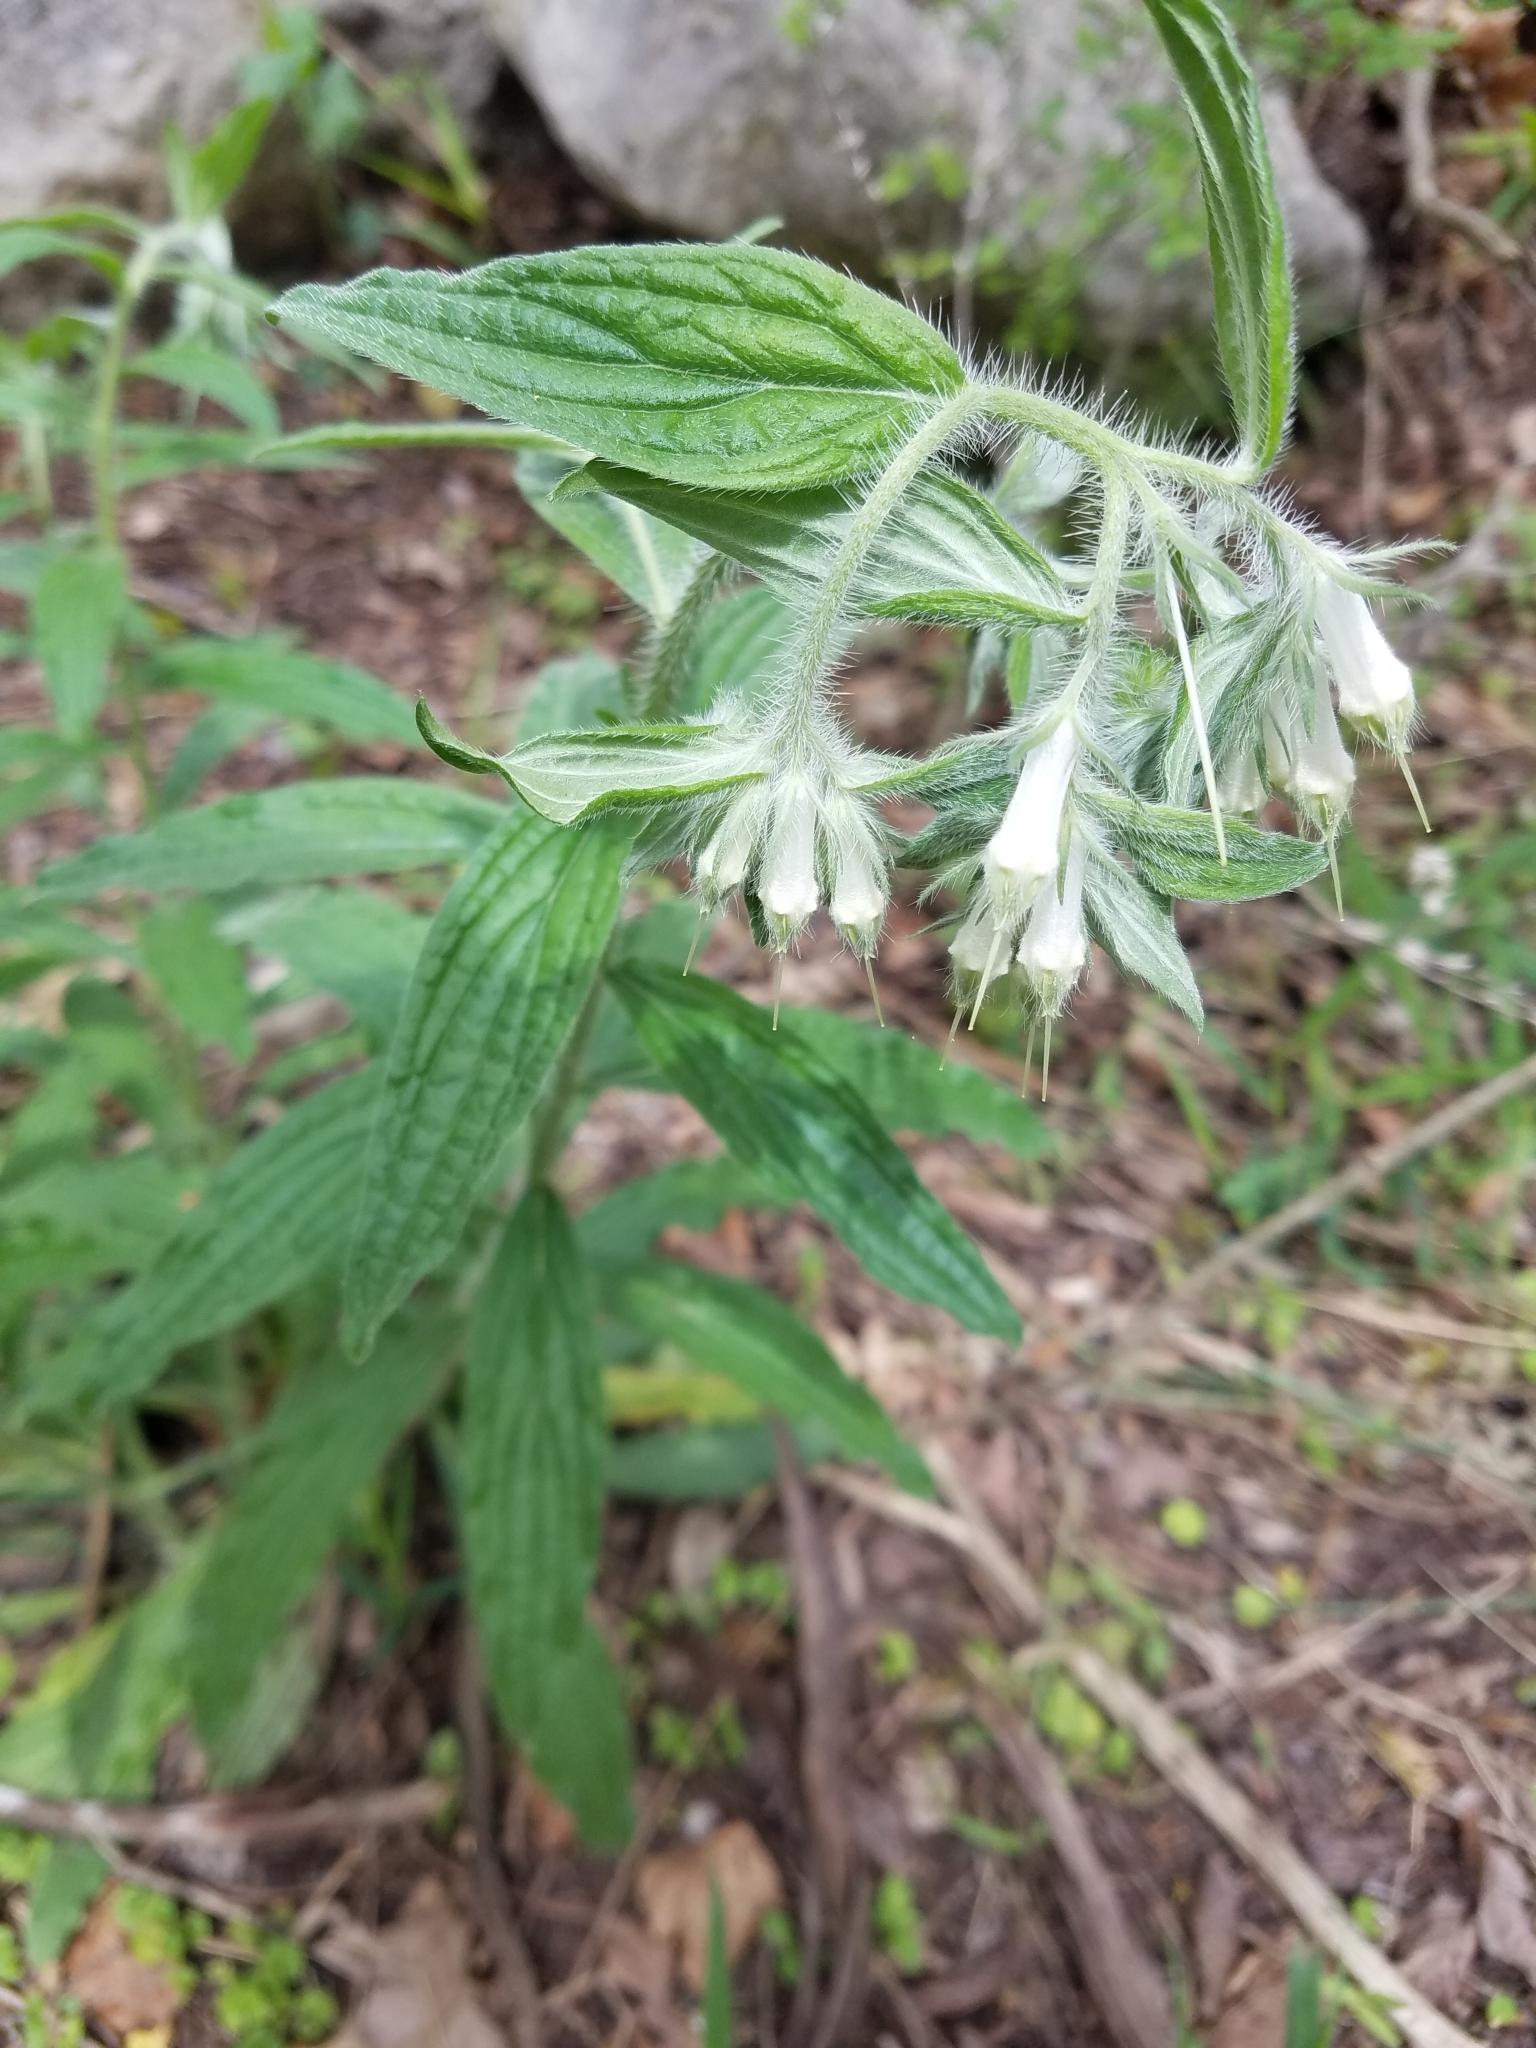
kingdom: Plantae
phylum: Tracheophyta
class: Magnoliopsida
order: Boraginales
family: Boraginaceae
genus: Lithospermum
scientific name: Lithospermum caroliniense
